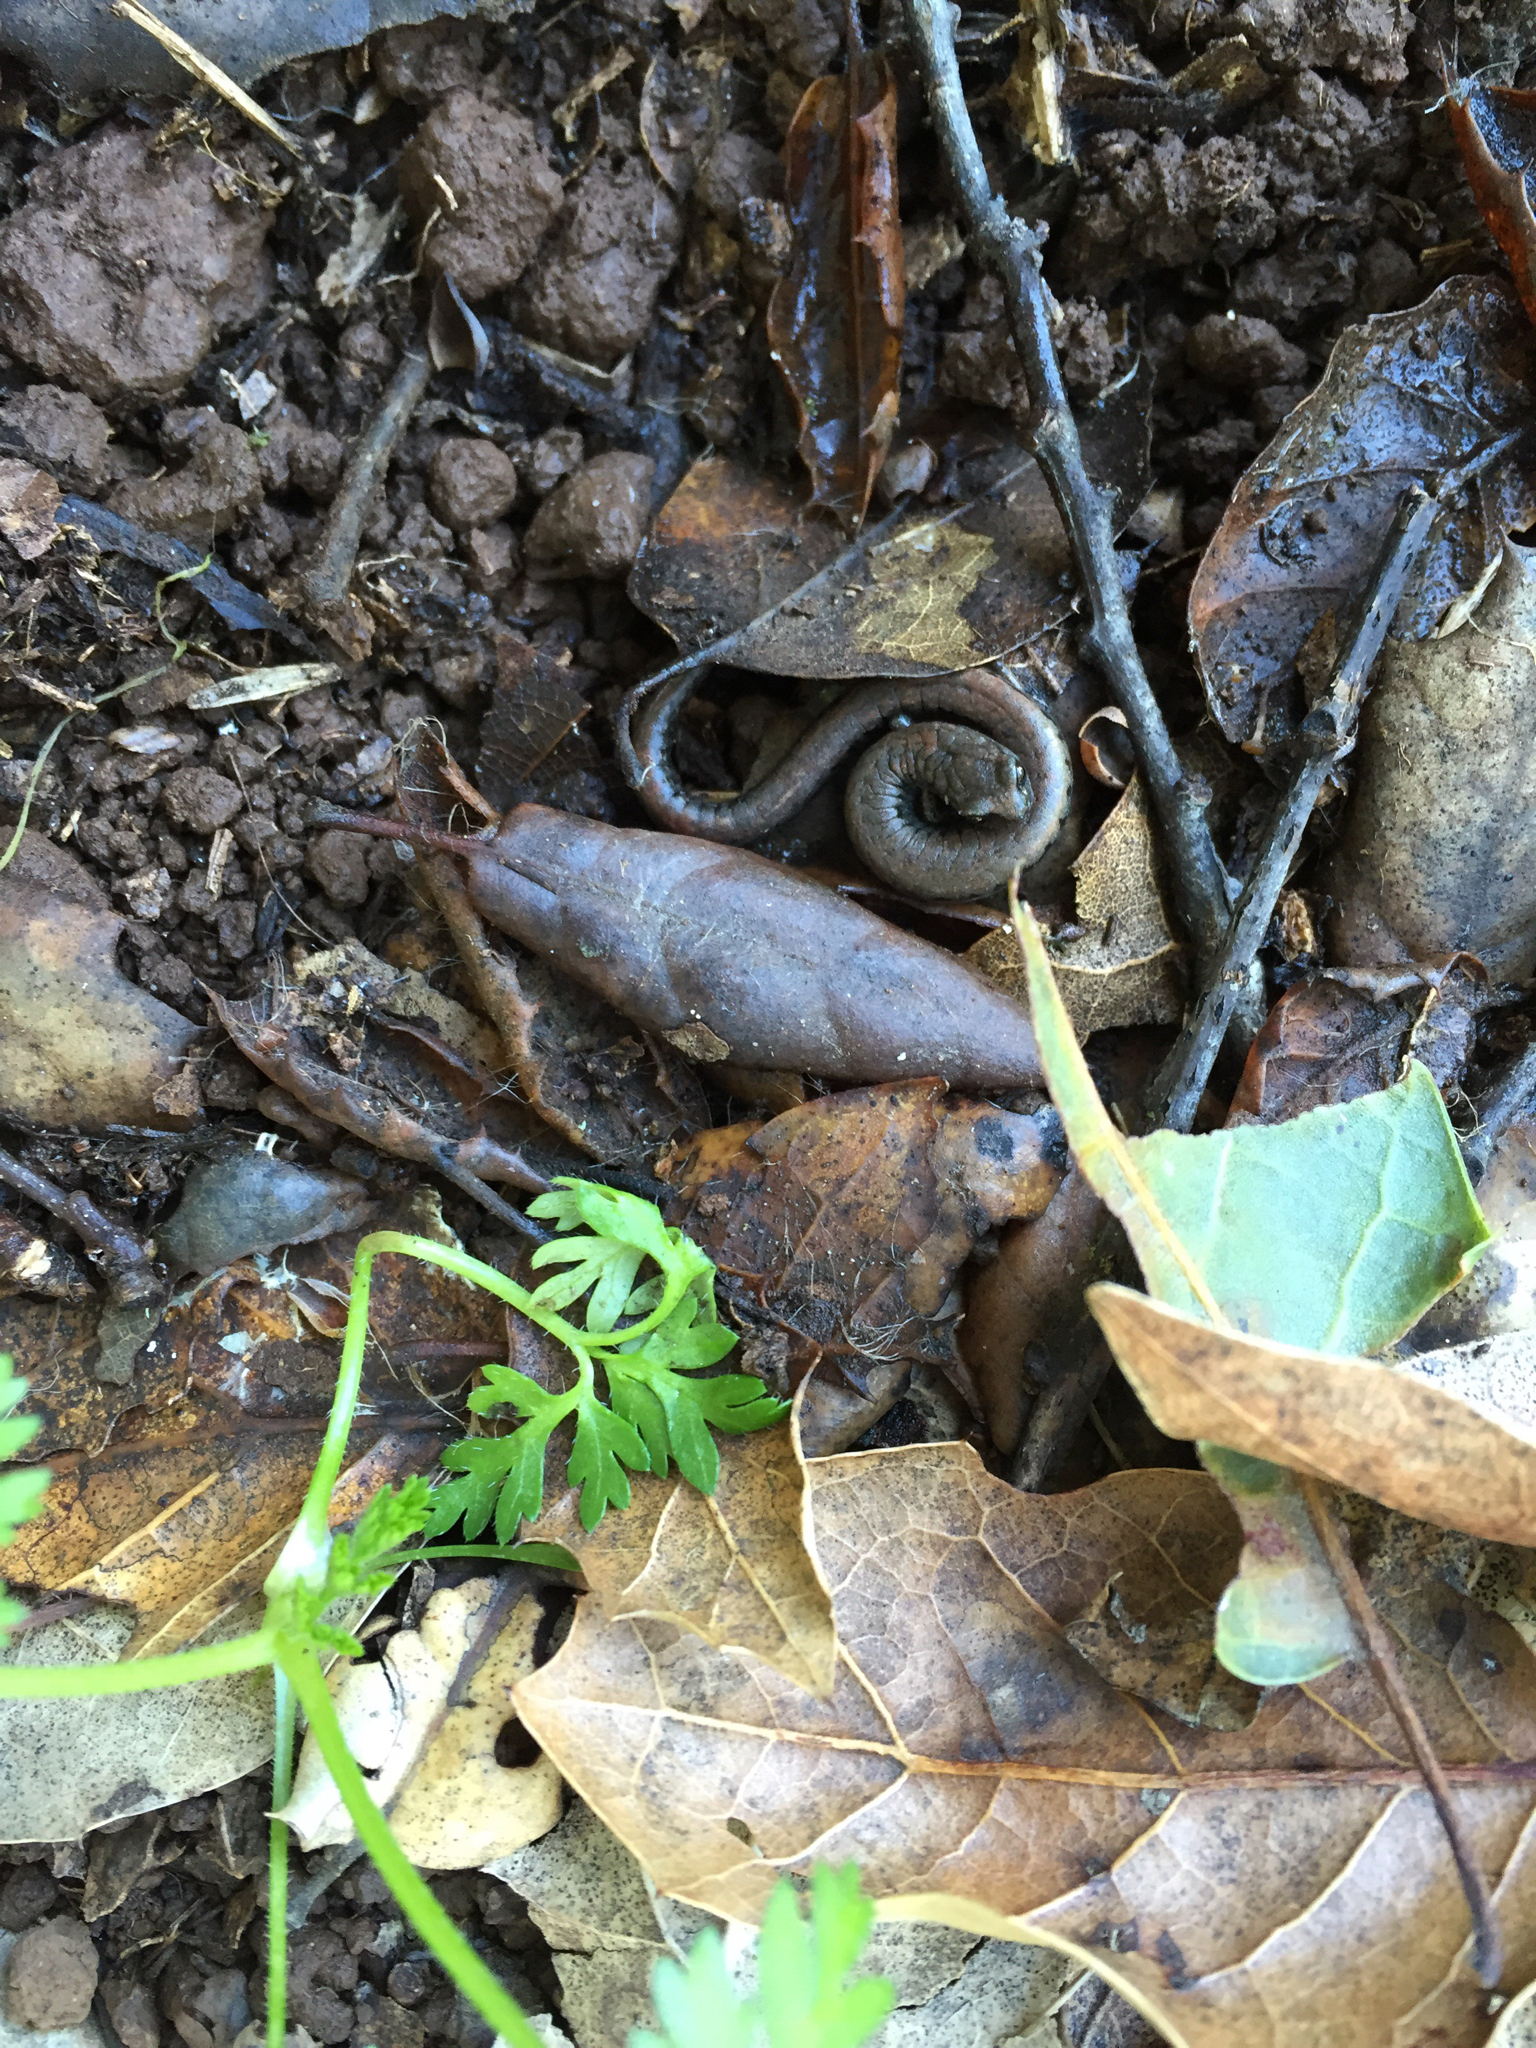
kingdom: Animalia
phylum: Chordata
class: Amphibia
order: Caudata
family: Plethodontidae
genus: Batrachoseps
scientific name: Batrachoseps attenuatus
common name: California slender salamander
